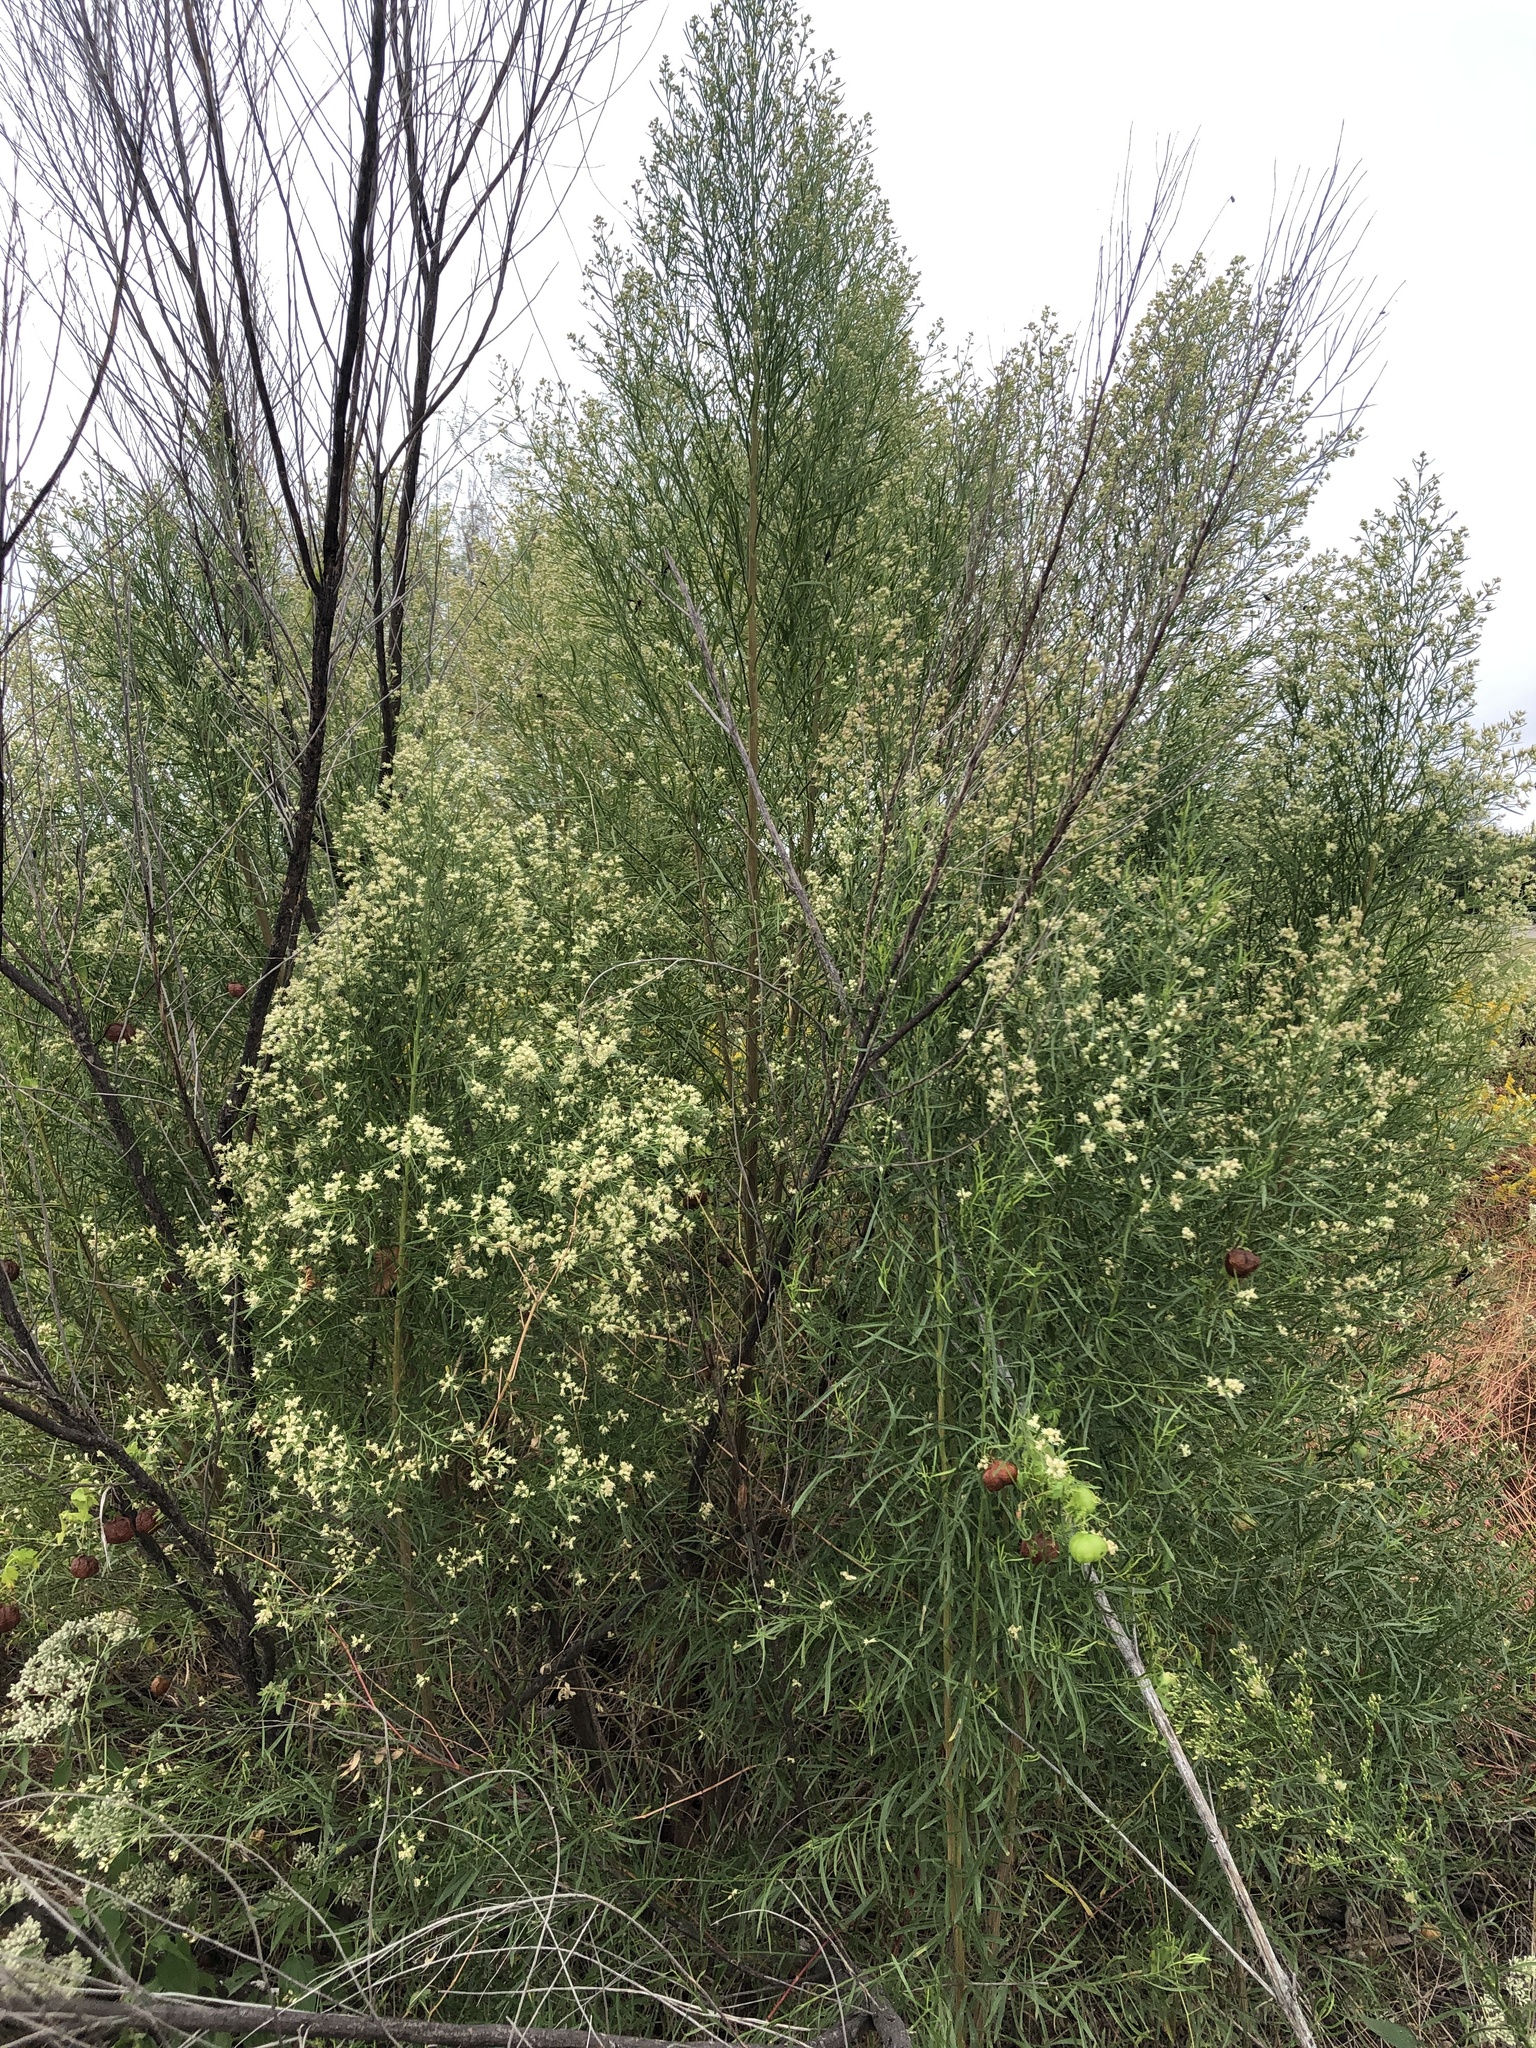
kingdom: Plantae
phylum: Tracheophyta
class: Magnoliopsida
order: Asterales
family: Asteraceae
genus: Baccharis
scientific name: Baccharis neglecta
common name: Roosevelt-weed
